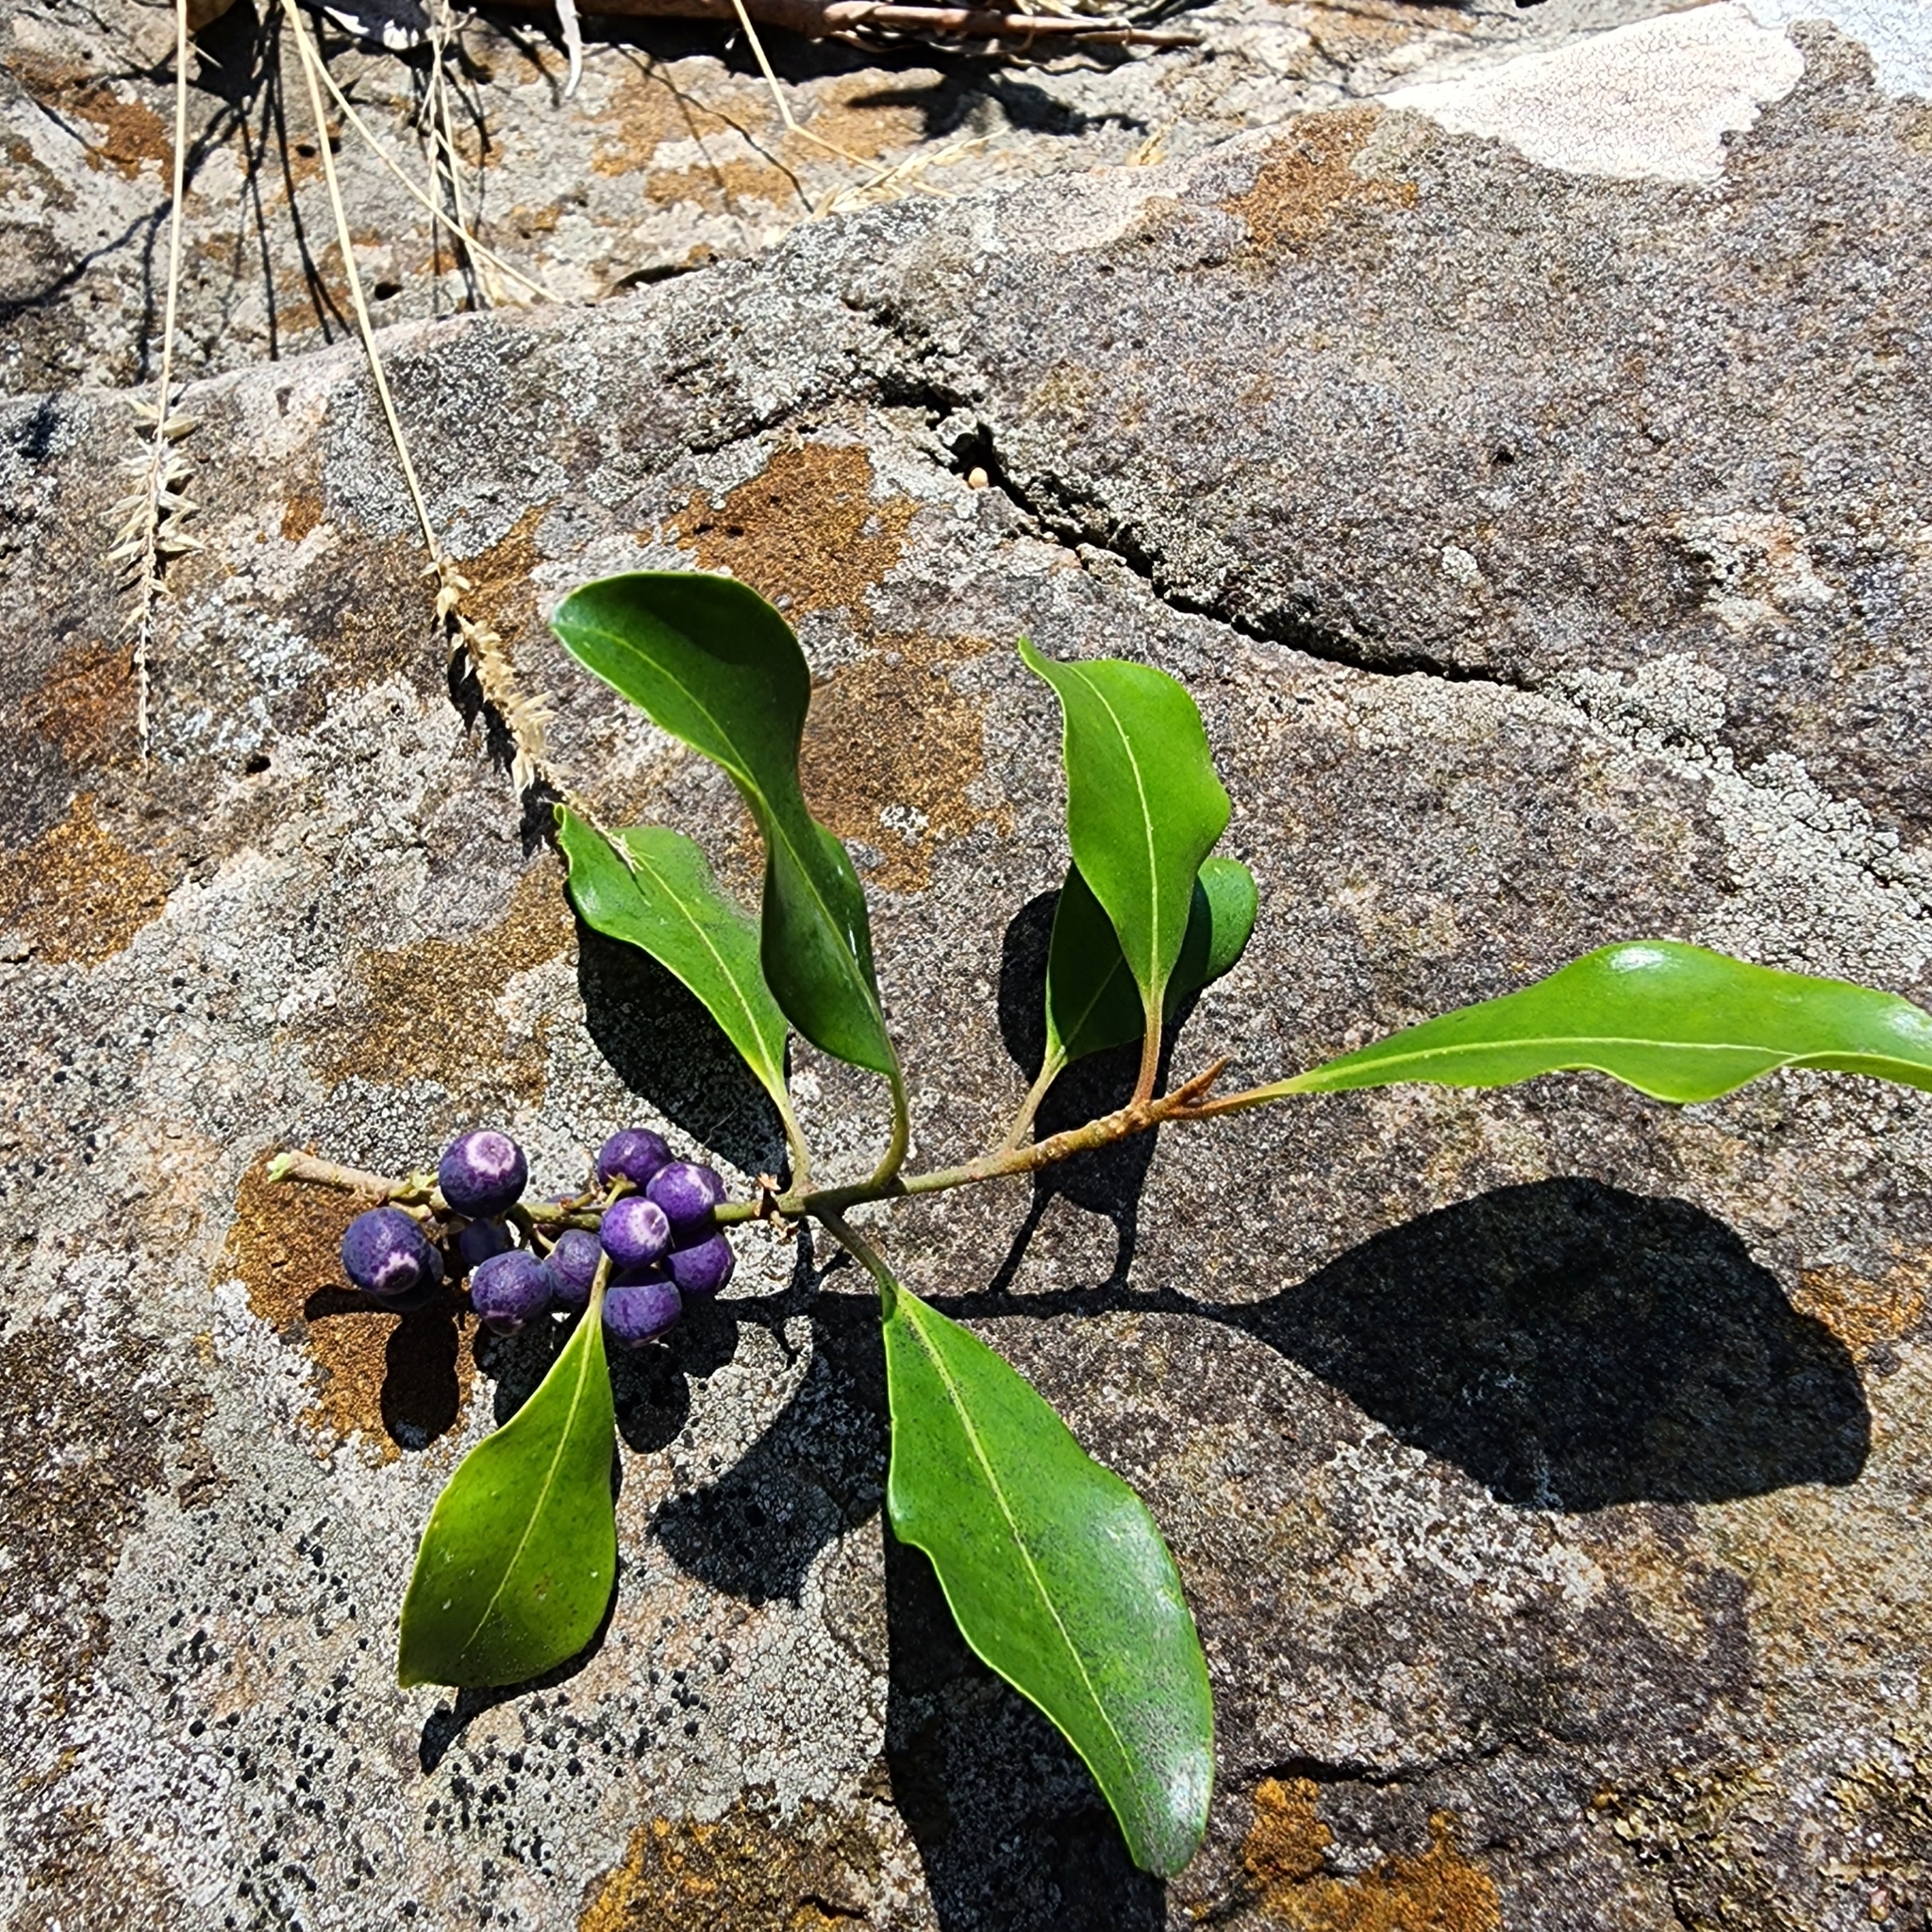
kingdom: Plantae
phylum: Tracheophyta
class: Magnoliopsida
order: Ericales
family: Primulaceae
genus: Myrsine
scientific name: Myrsine howittiana
